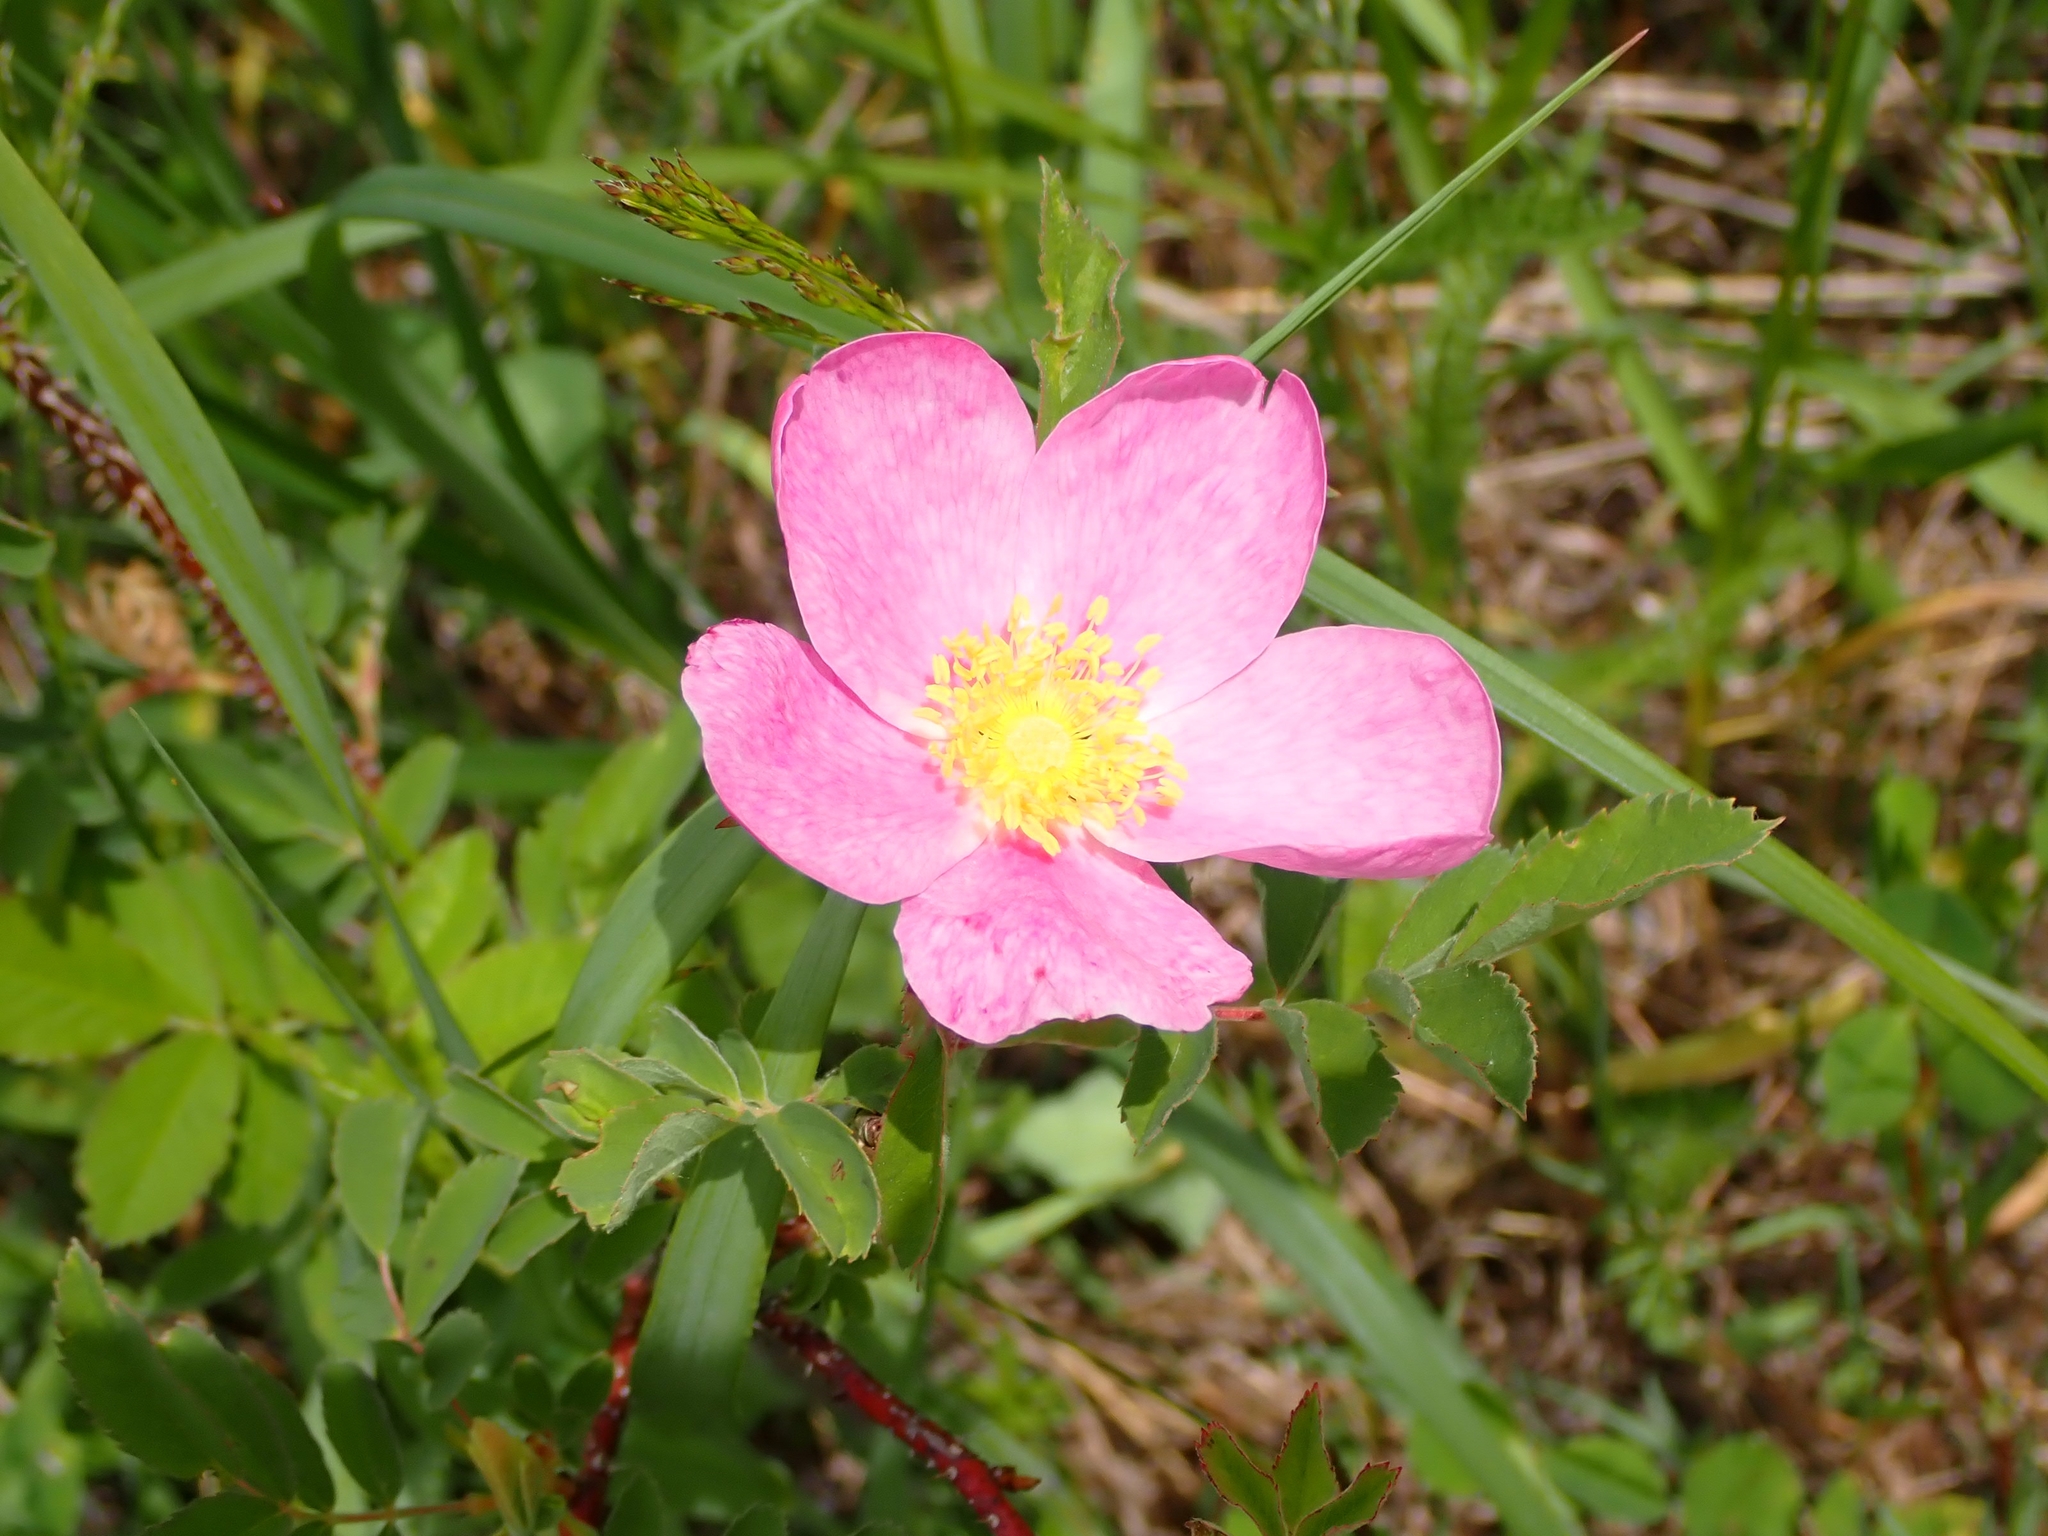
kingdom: Plantae
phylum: Tracheophyta
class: Magnoliopsida
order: Rosales
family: Rosaceae
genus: Rosa
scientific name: Rosa woodsii
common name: Woods's rose
